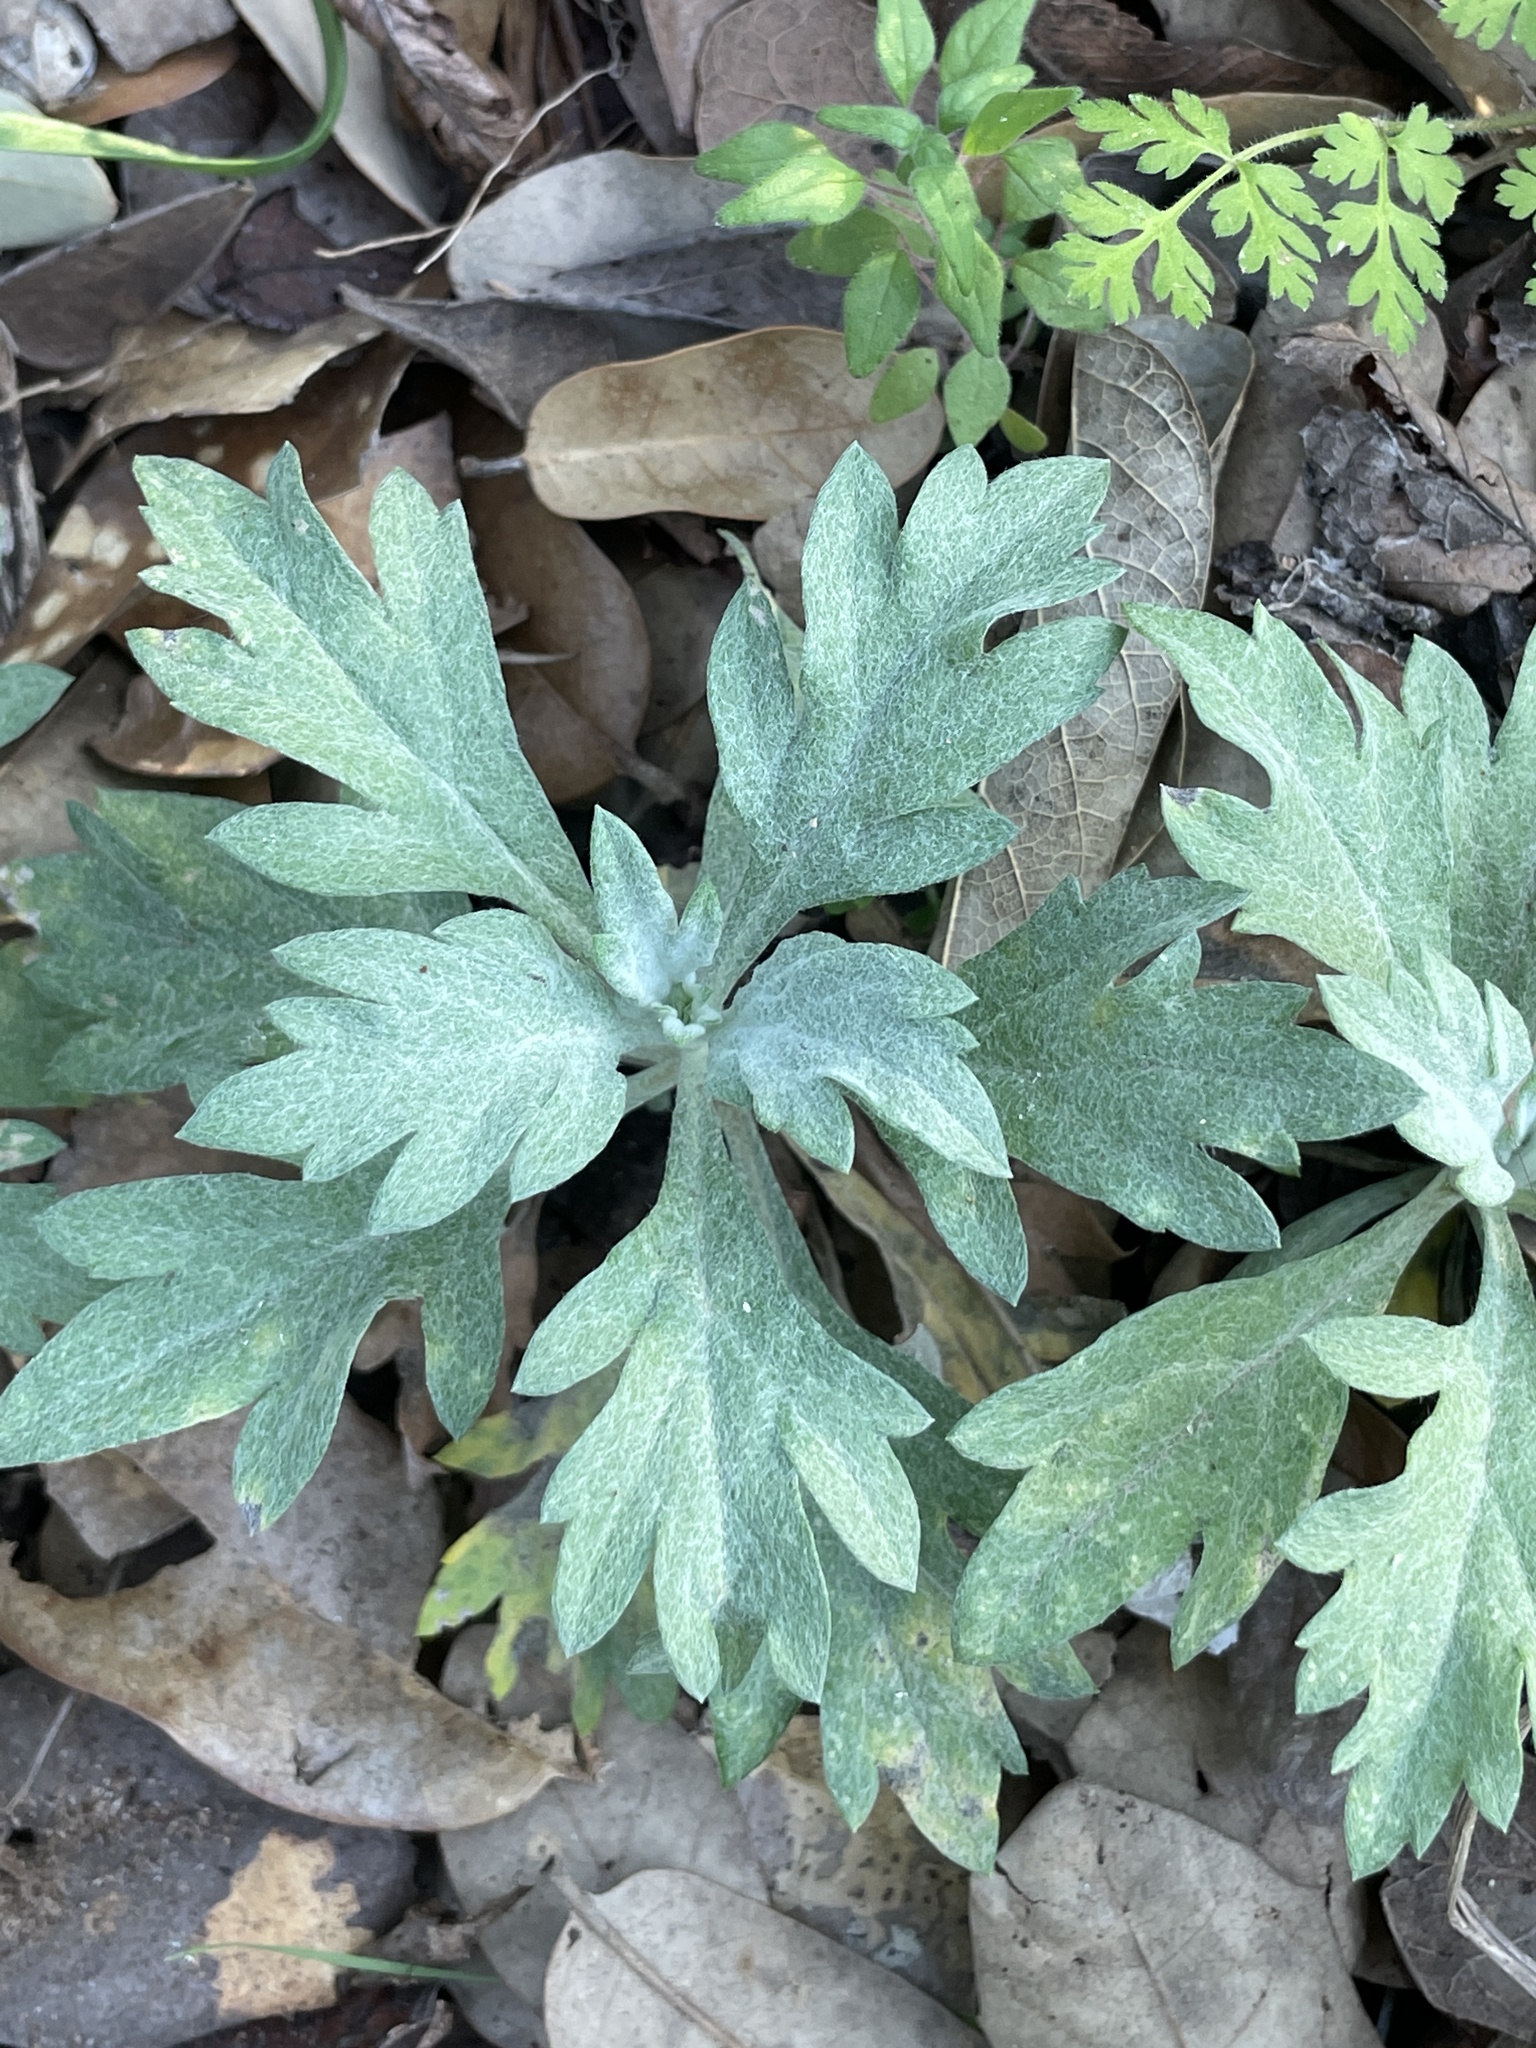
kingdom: Plantae
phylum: Tracheophyta
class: Magnoliopsida
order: Asterales
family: Asteraceae
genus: Artemisia
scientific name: Artemisia ludoviciana
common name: Western mugwort
